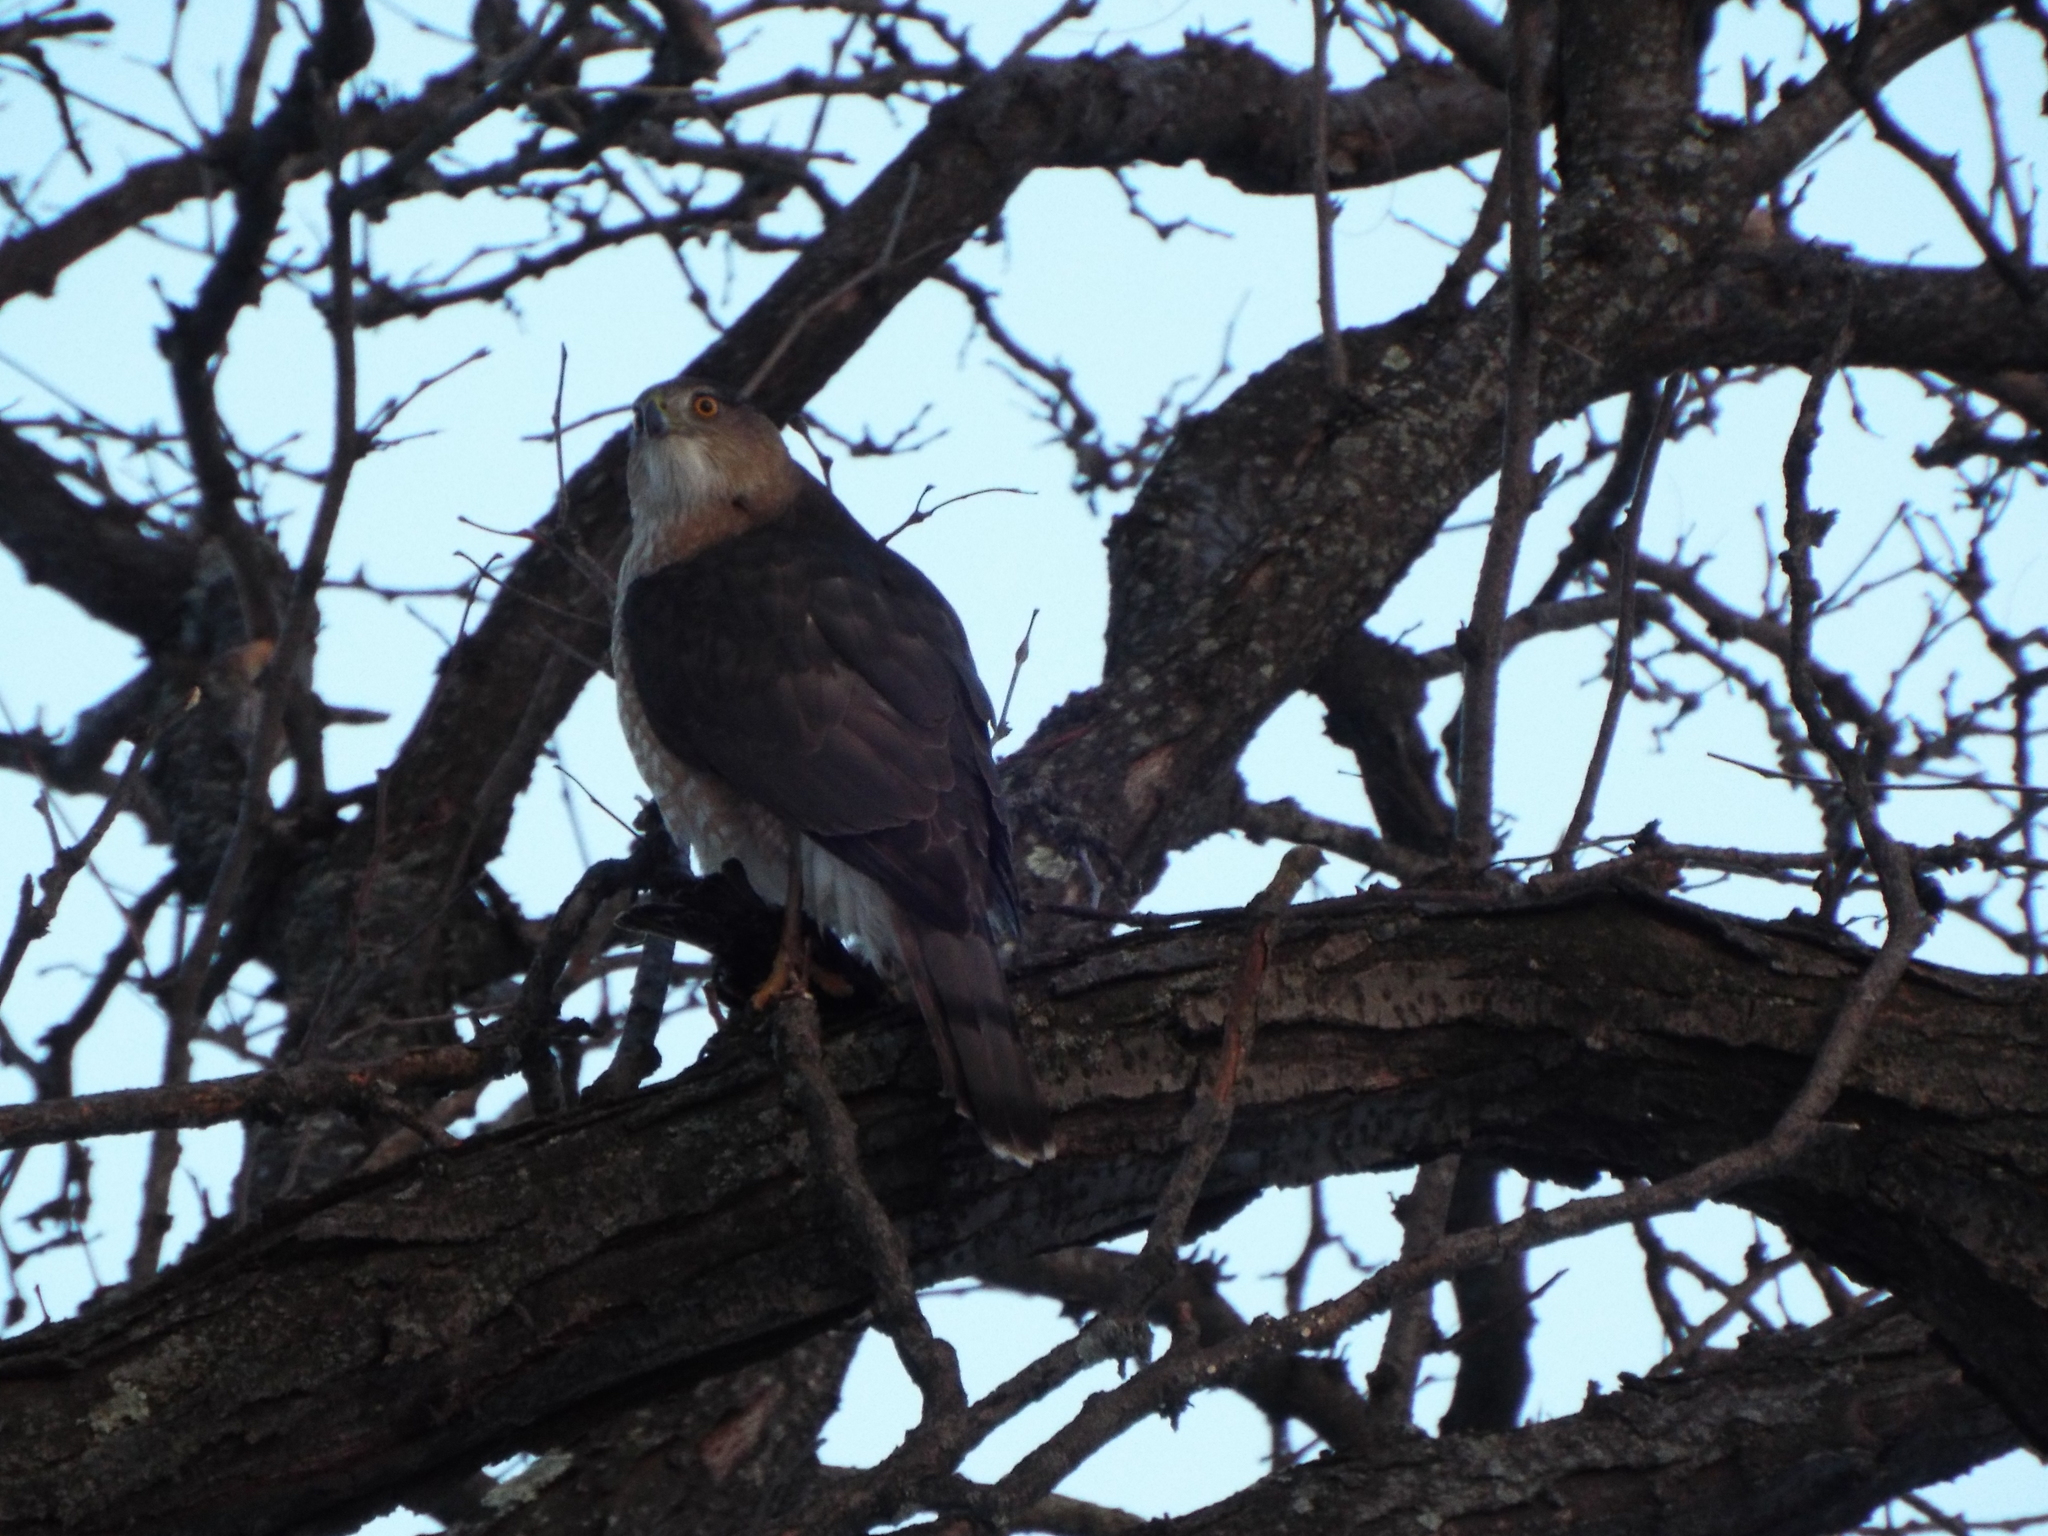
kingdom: Animalia
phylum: Chordata
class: Aves
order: Accipitriformes
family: Accipitridae
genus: Accipiter
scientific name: Accipiter cooperii
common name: Cooper's hawk
